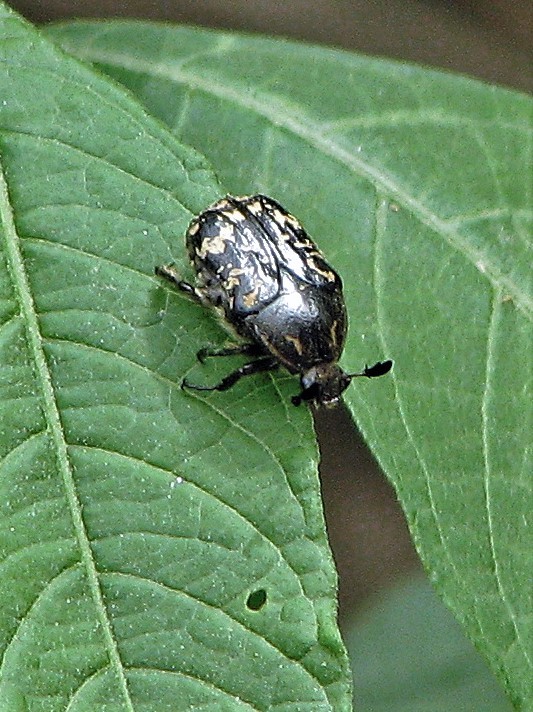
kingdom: Animalia
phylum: Arthropoda
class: Insecta
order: Coleoptera
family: Scarabaeidae
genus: Euphoria
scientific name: Euphoria lurida
